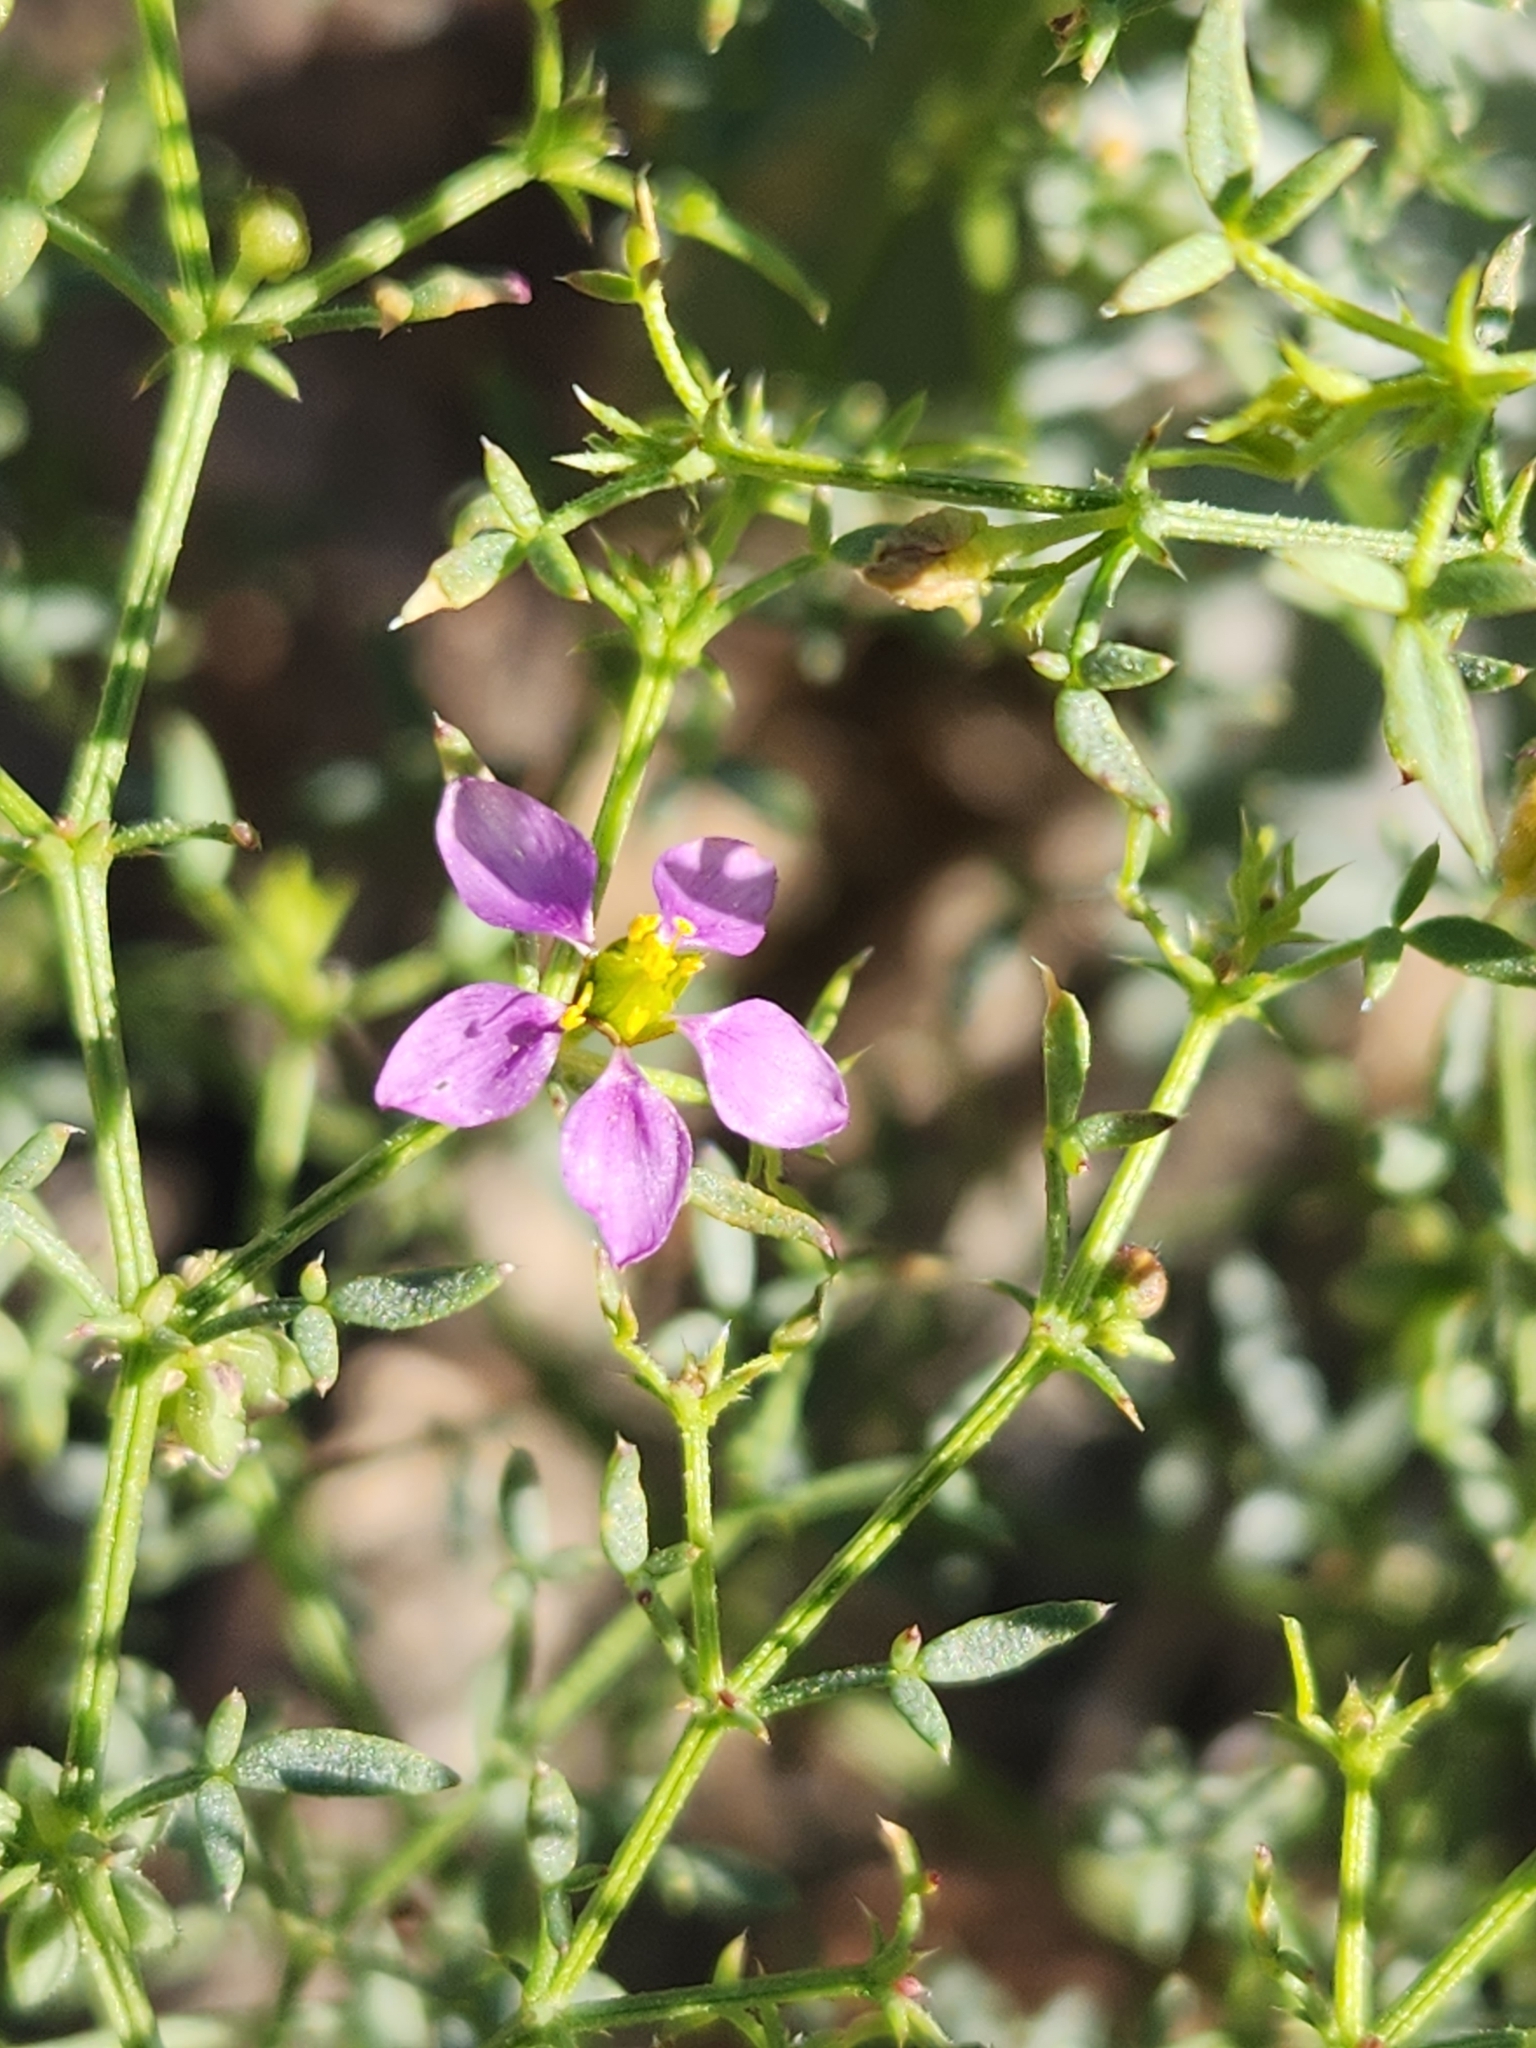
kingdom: Plantae
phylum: Tracheophyta
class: Magnoliopsida
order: Zygophyllales
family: Zygophyllaceae
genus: Fagonia
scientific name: Fagonia laevis
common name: California fagonbush
